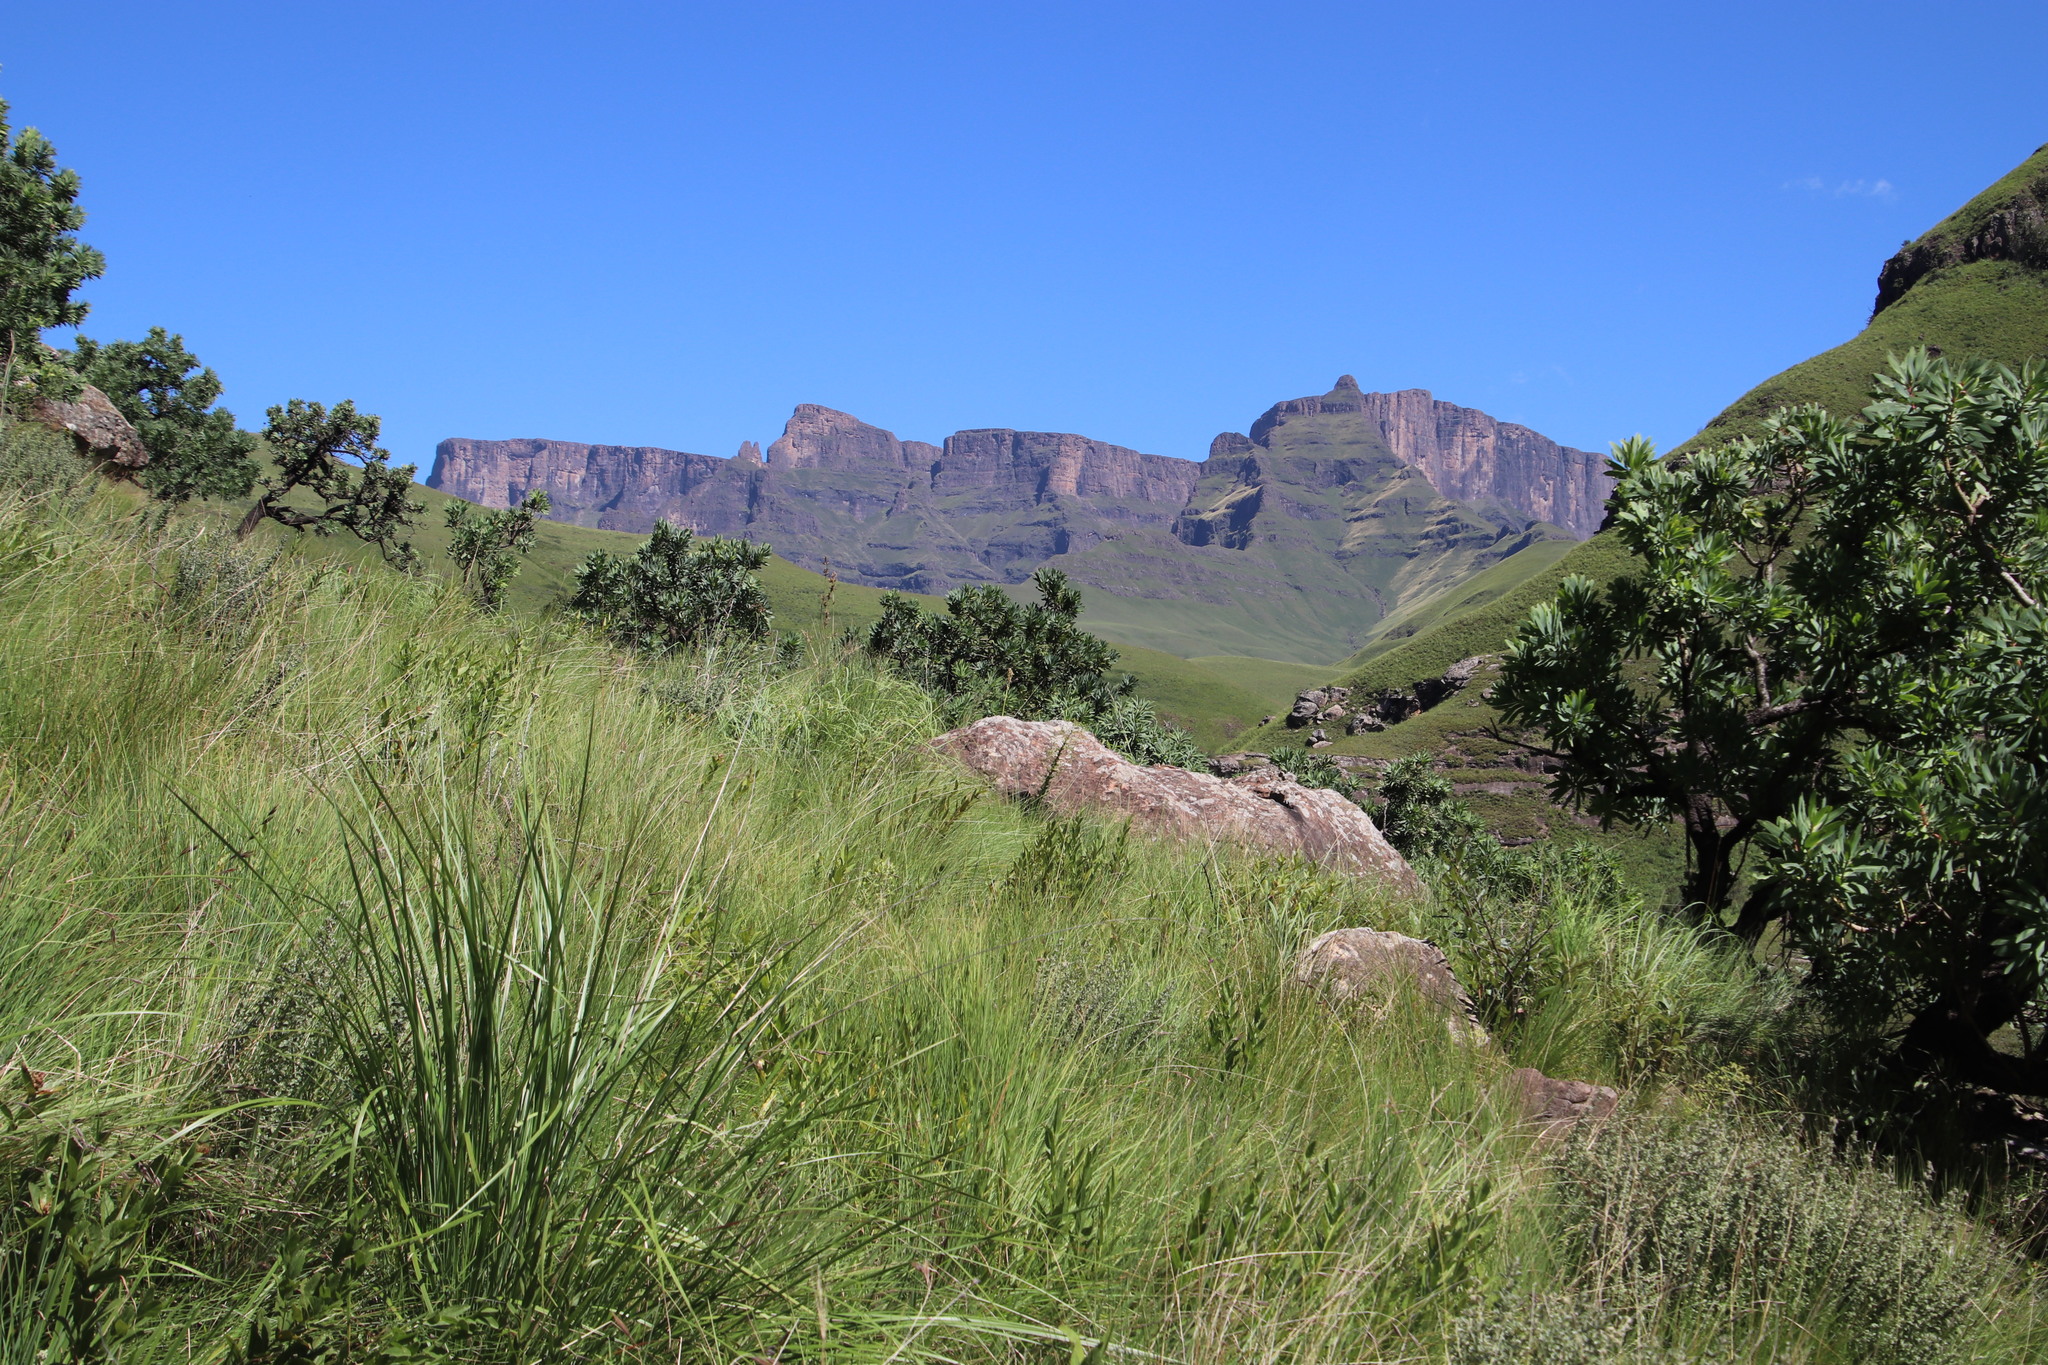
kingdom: Plantae
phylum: Tracheophyta
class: Magnoliopsida
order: Proteales
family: Proteaceae
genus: Protea
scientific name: Protea roupelliae
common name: Silver sugarbush
